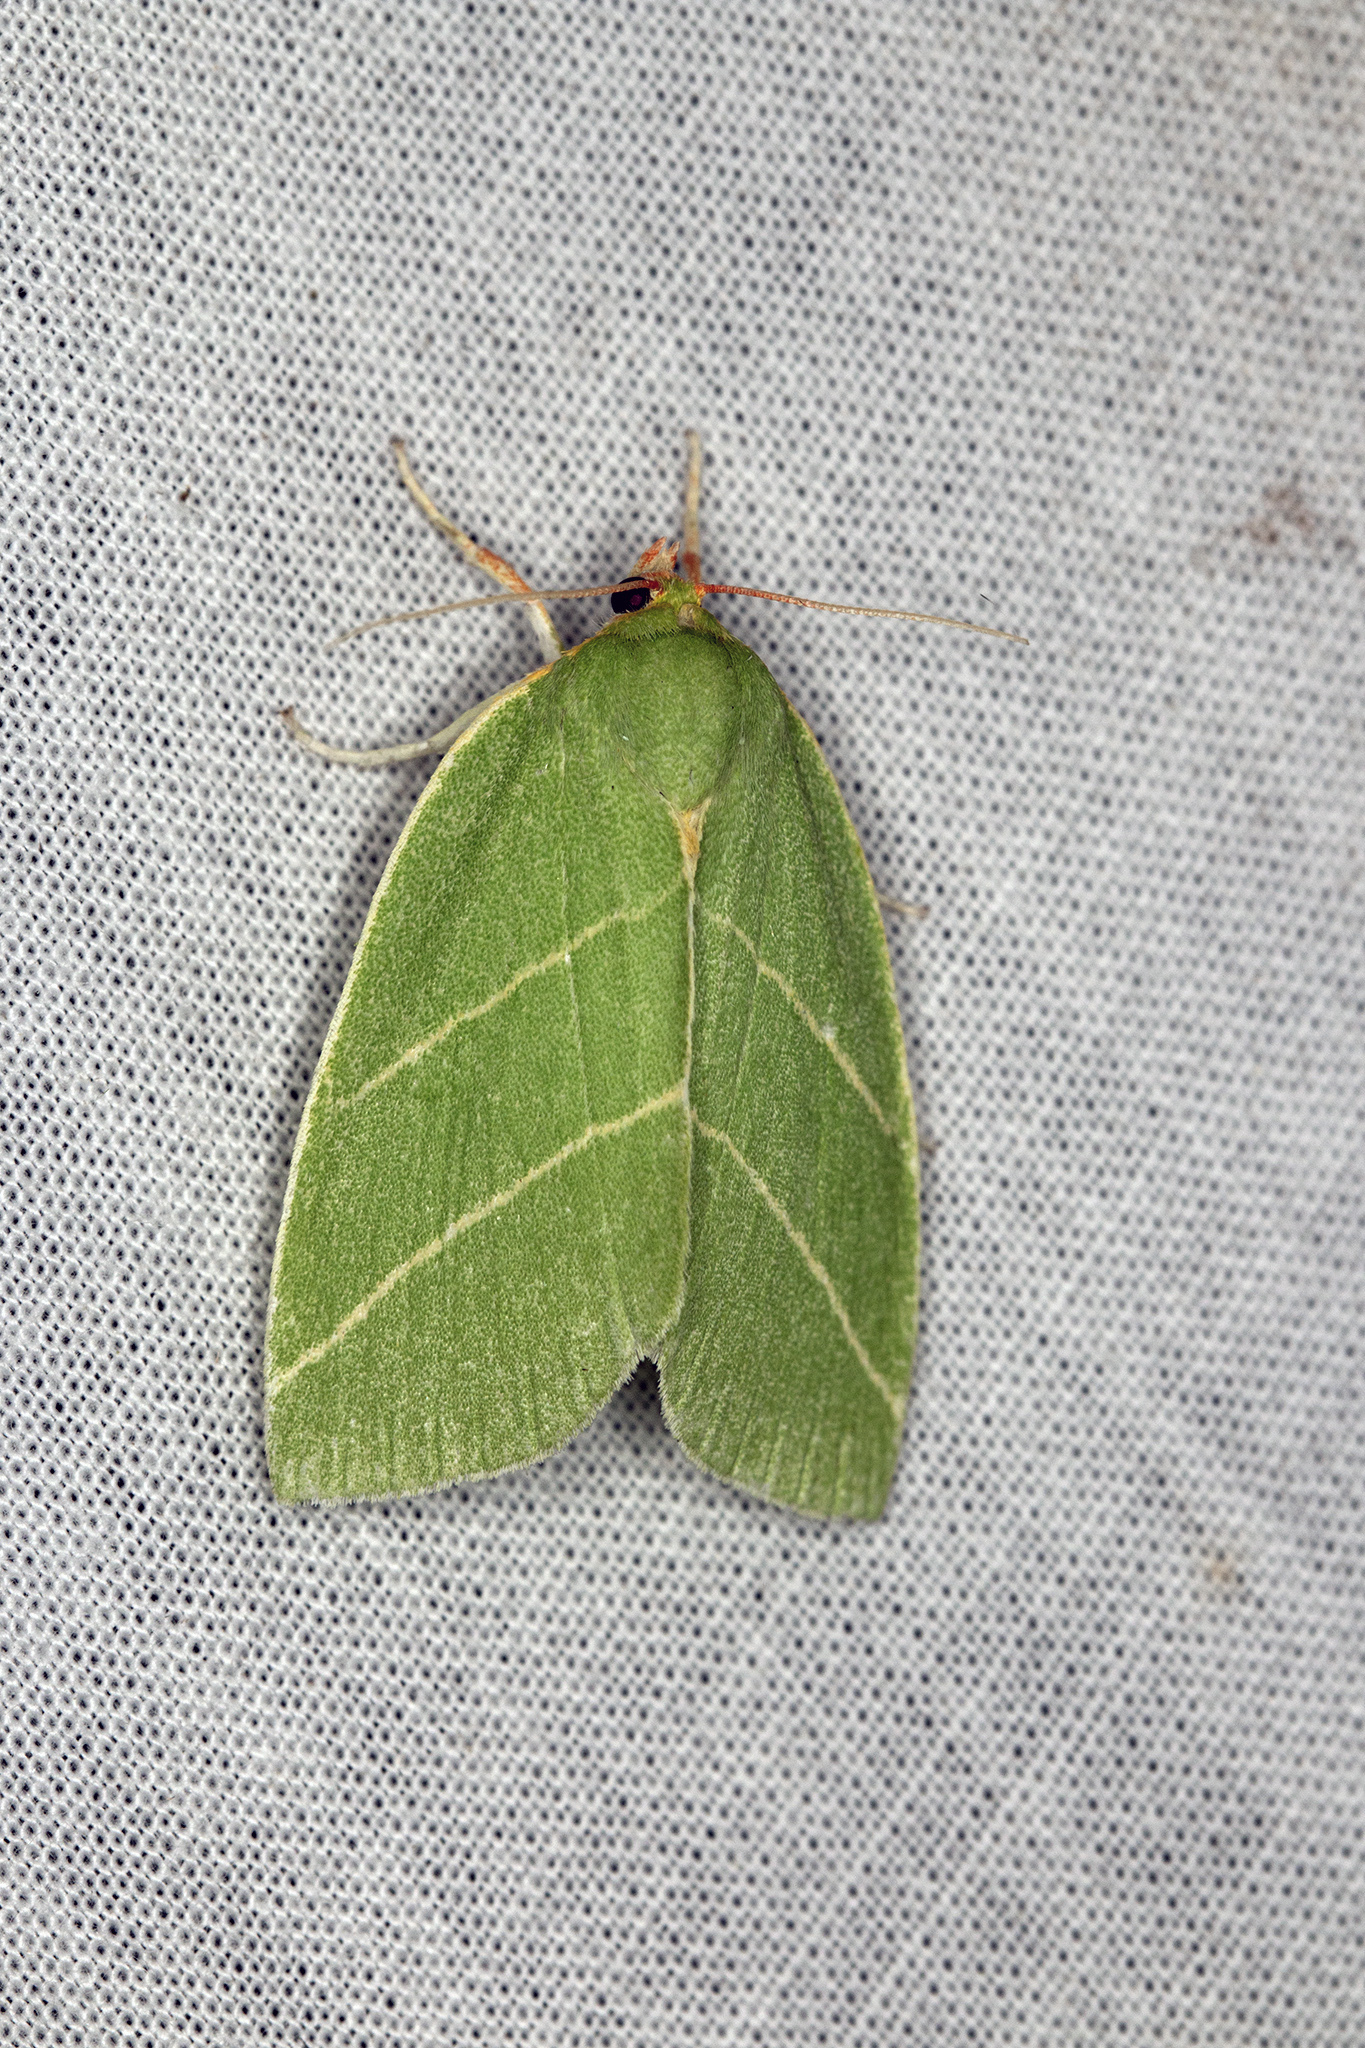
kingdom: Animalia
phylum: Arthropoda
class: Insecta
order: Lepidoptera
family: Nolidae
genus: Bena
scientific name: Bena bicolorana
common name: Scarce silver-lines
